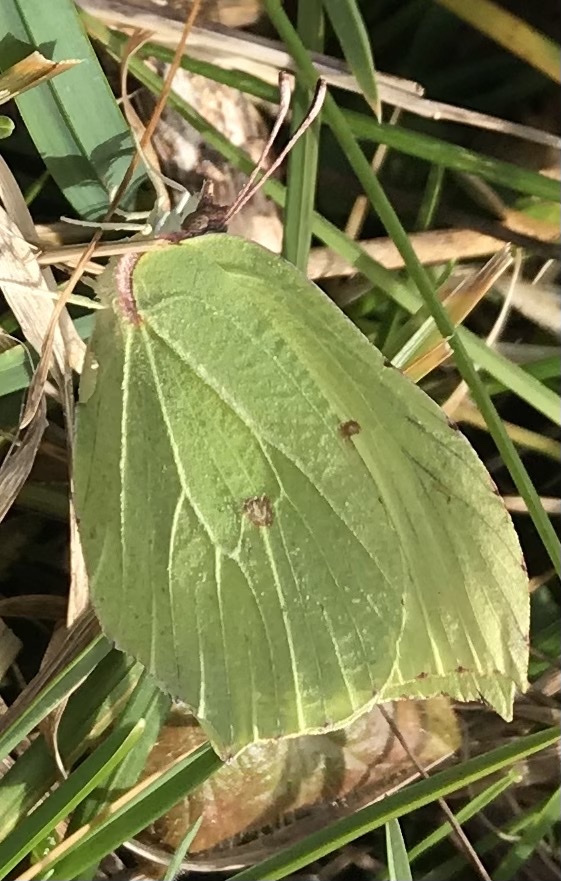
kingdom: Animalia
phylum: Arthropoda
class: Insecta
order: Lepidoptera
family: Pieridae
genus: Gonepteryx
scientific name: Gonepteryx rhamni
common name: Brimstone
